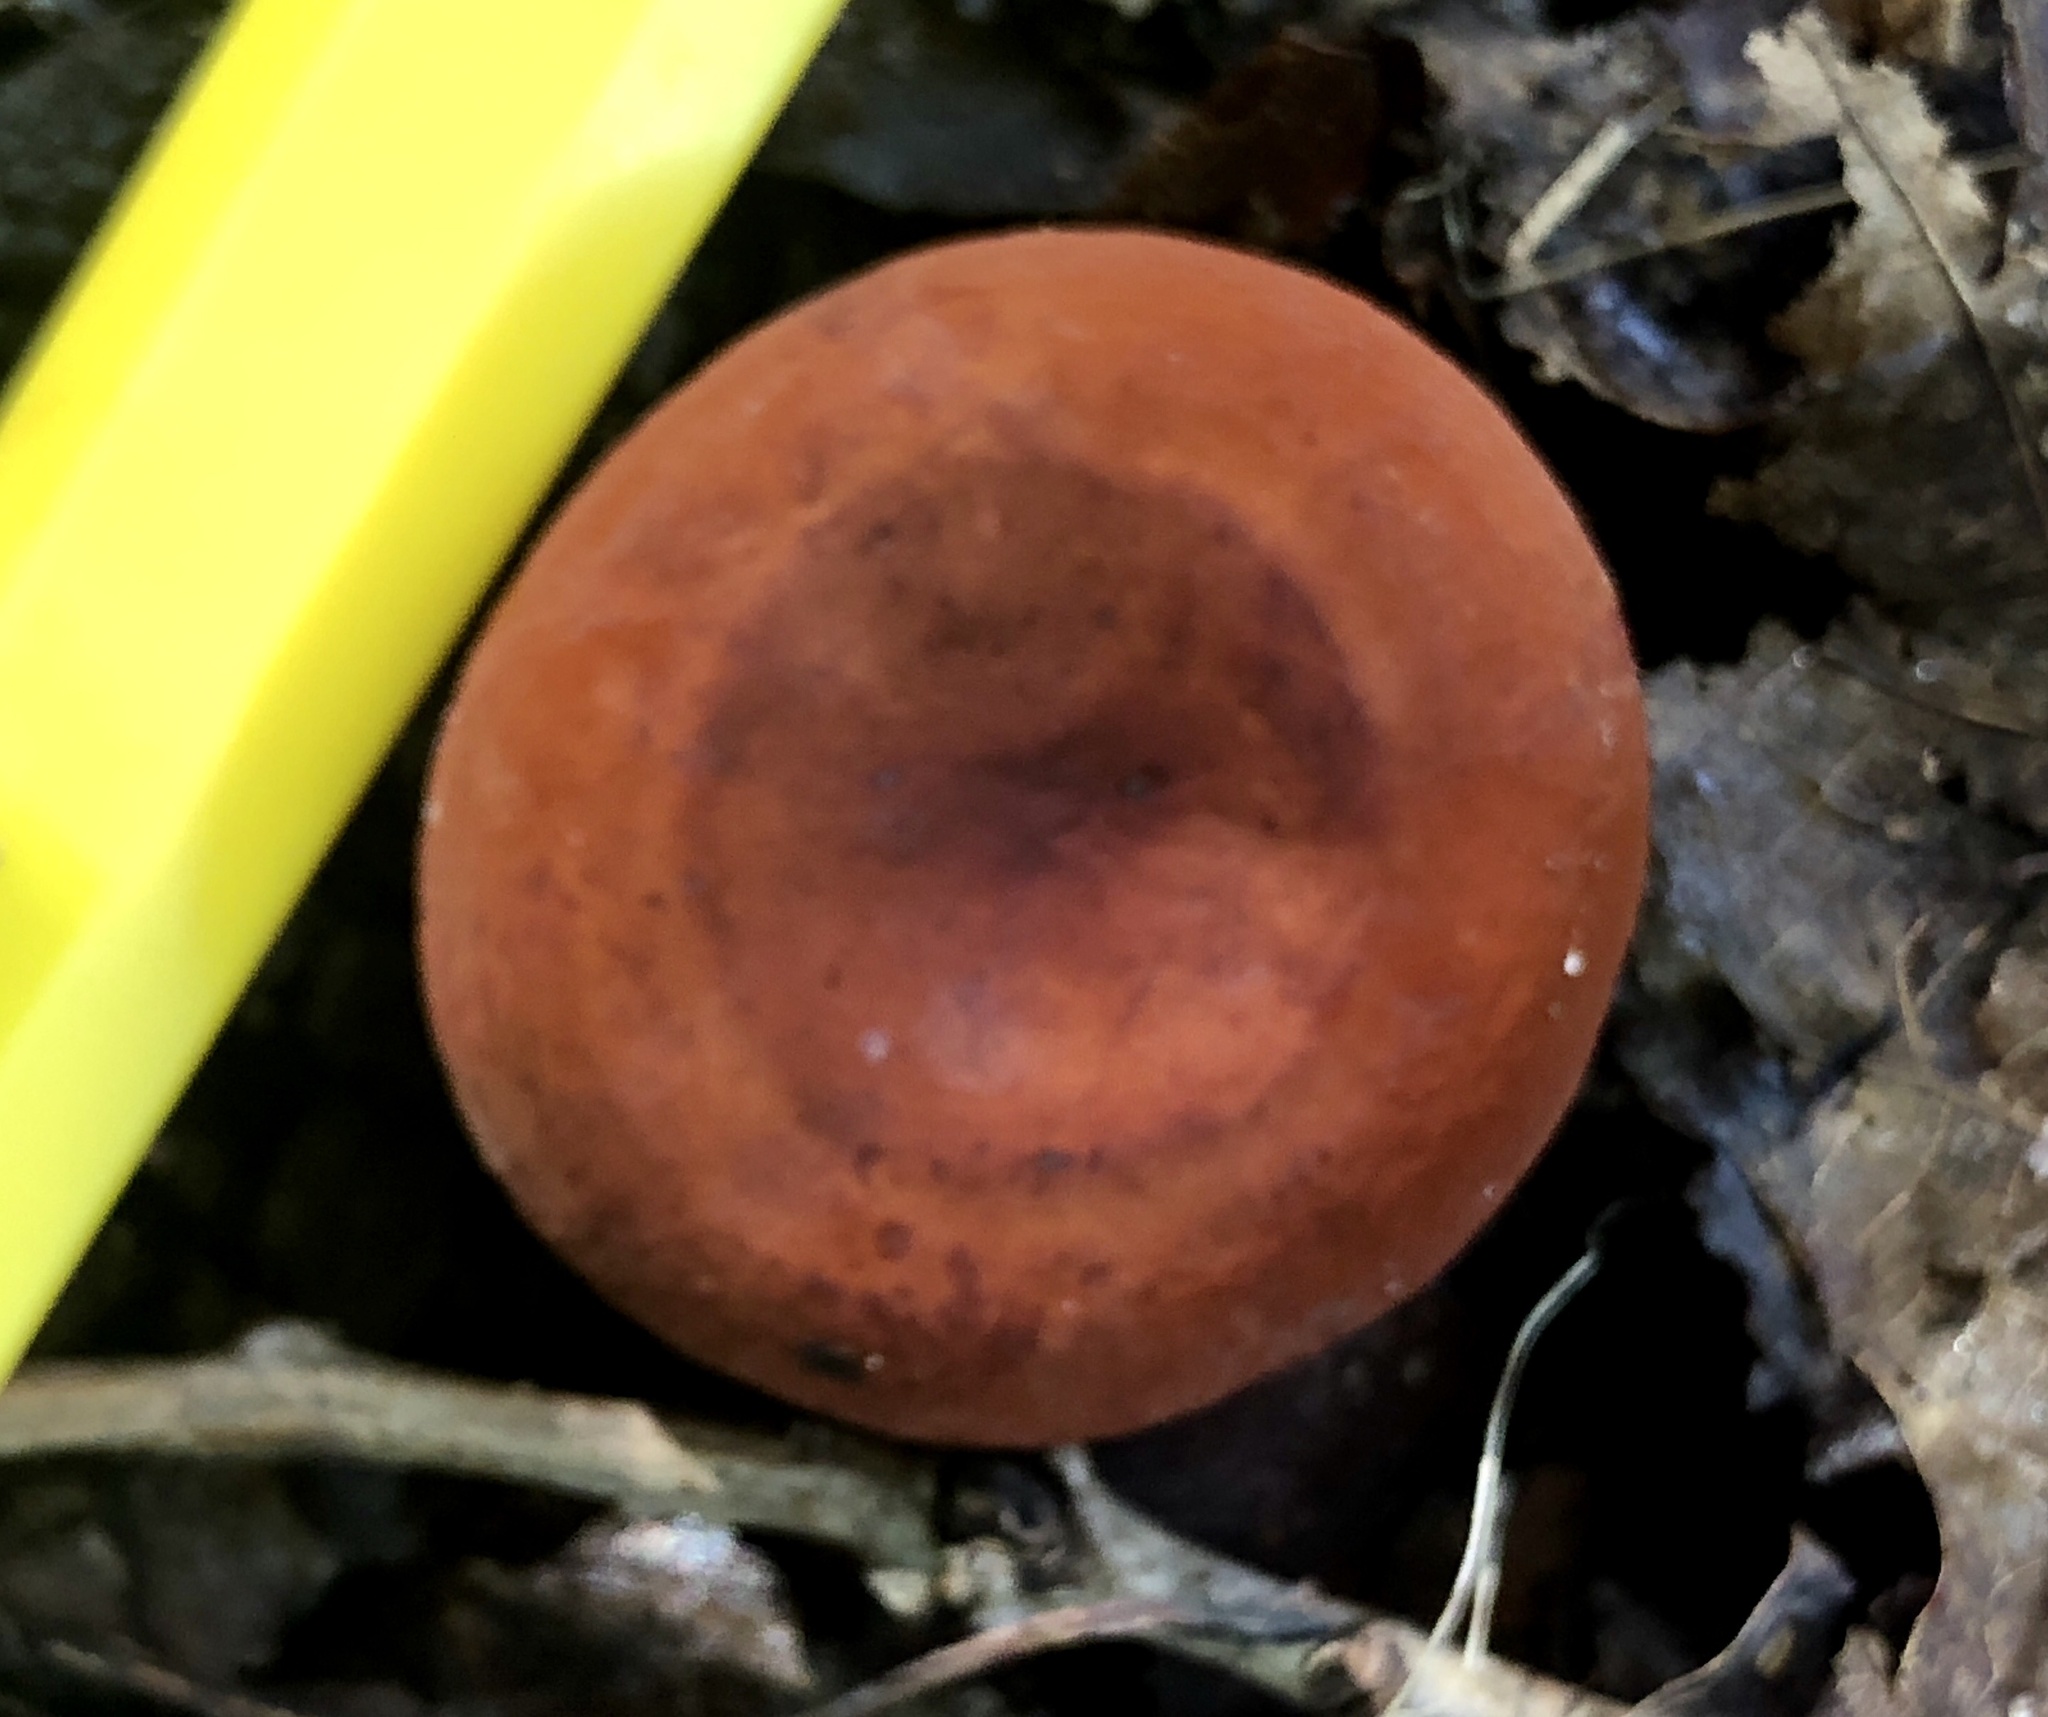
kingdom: Fungi
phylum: Basidiomycota
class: Agaricomycetes
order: Russulales
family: Russulaceae
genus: Lactifluus
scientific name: Lactifluus volemus
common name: Fishy milkcap
